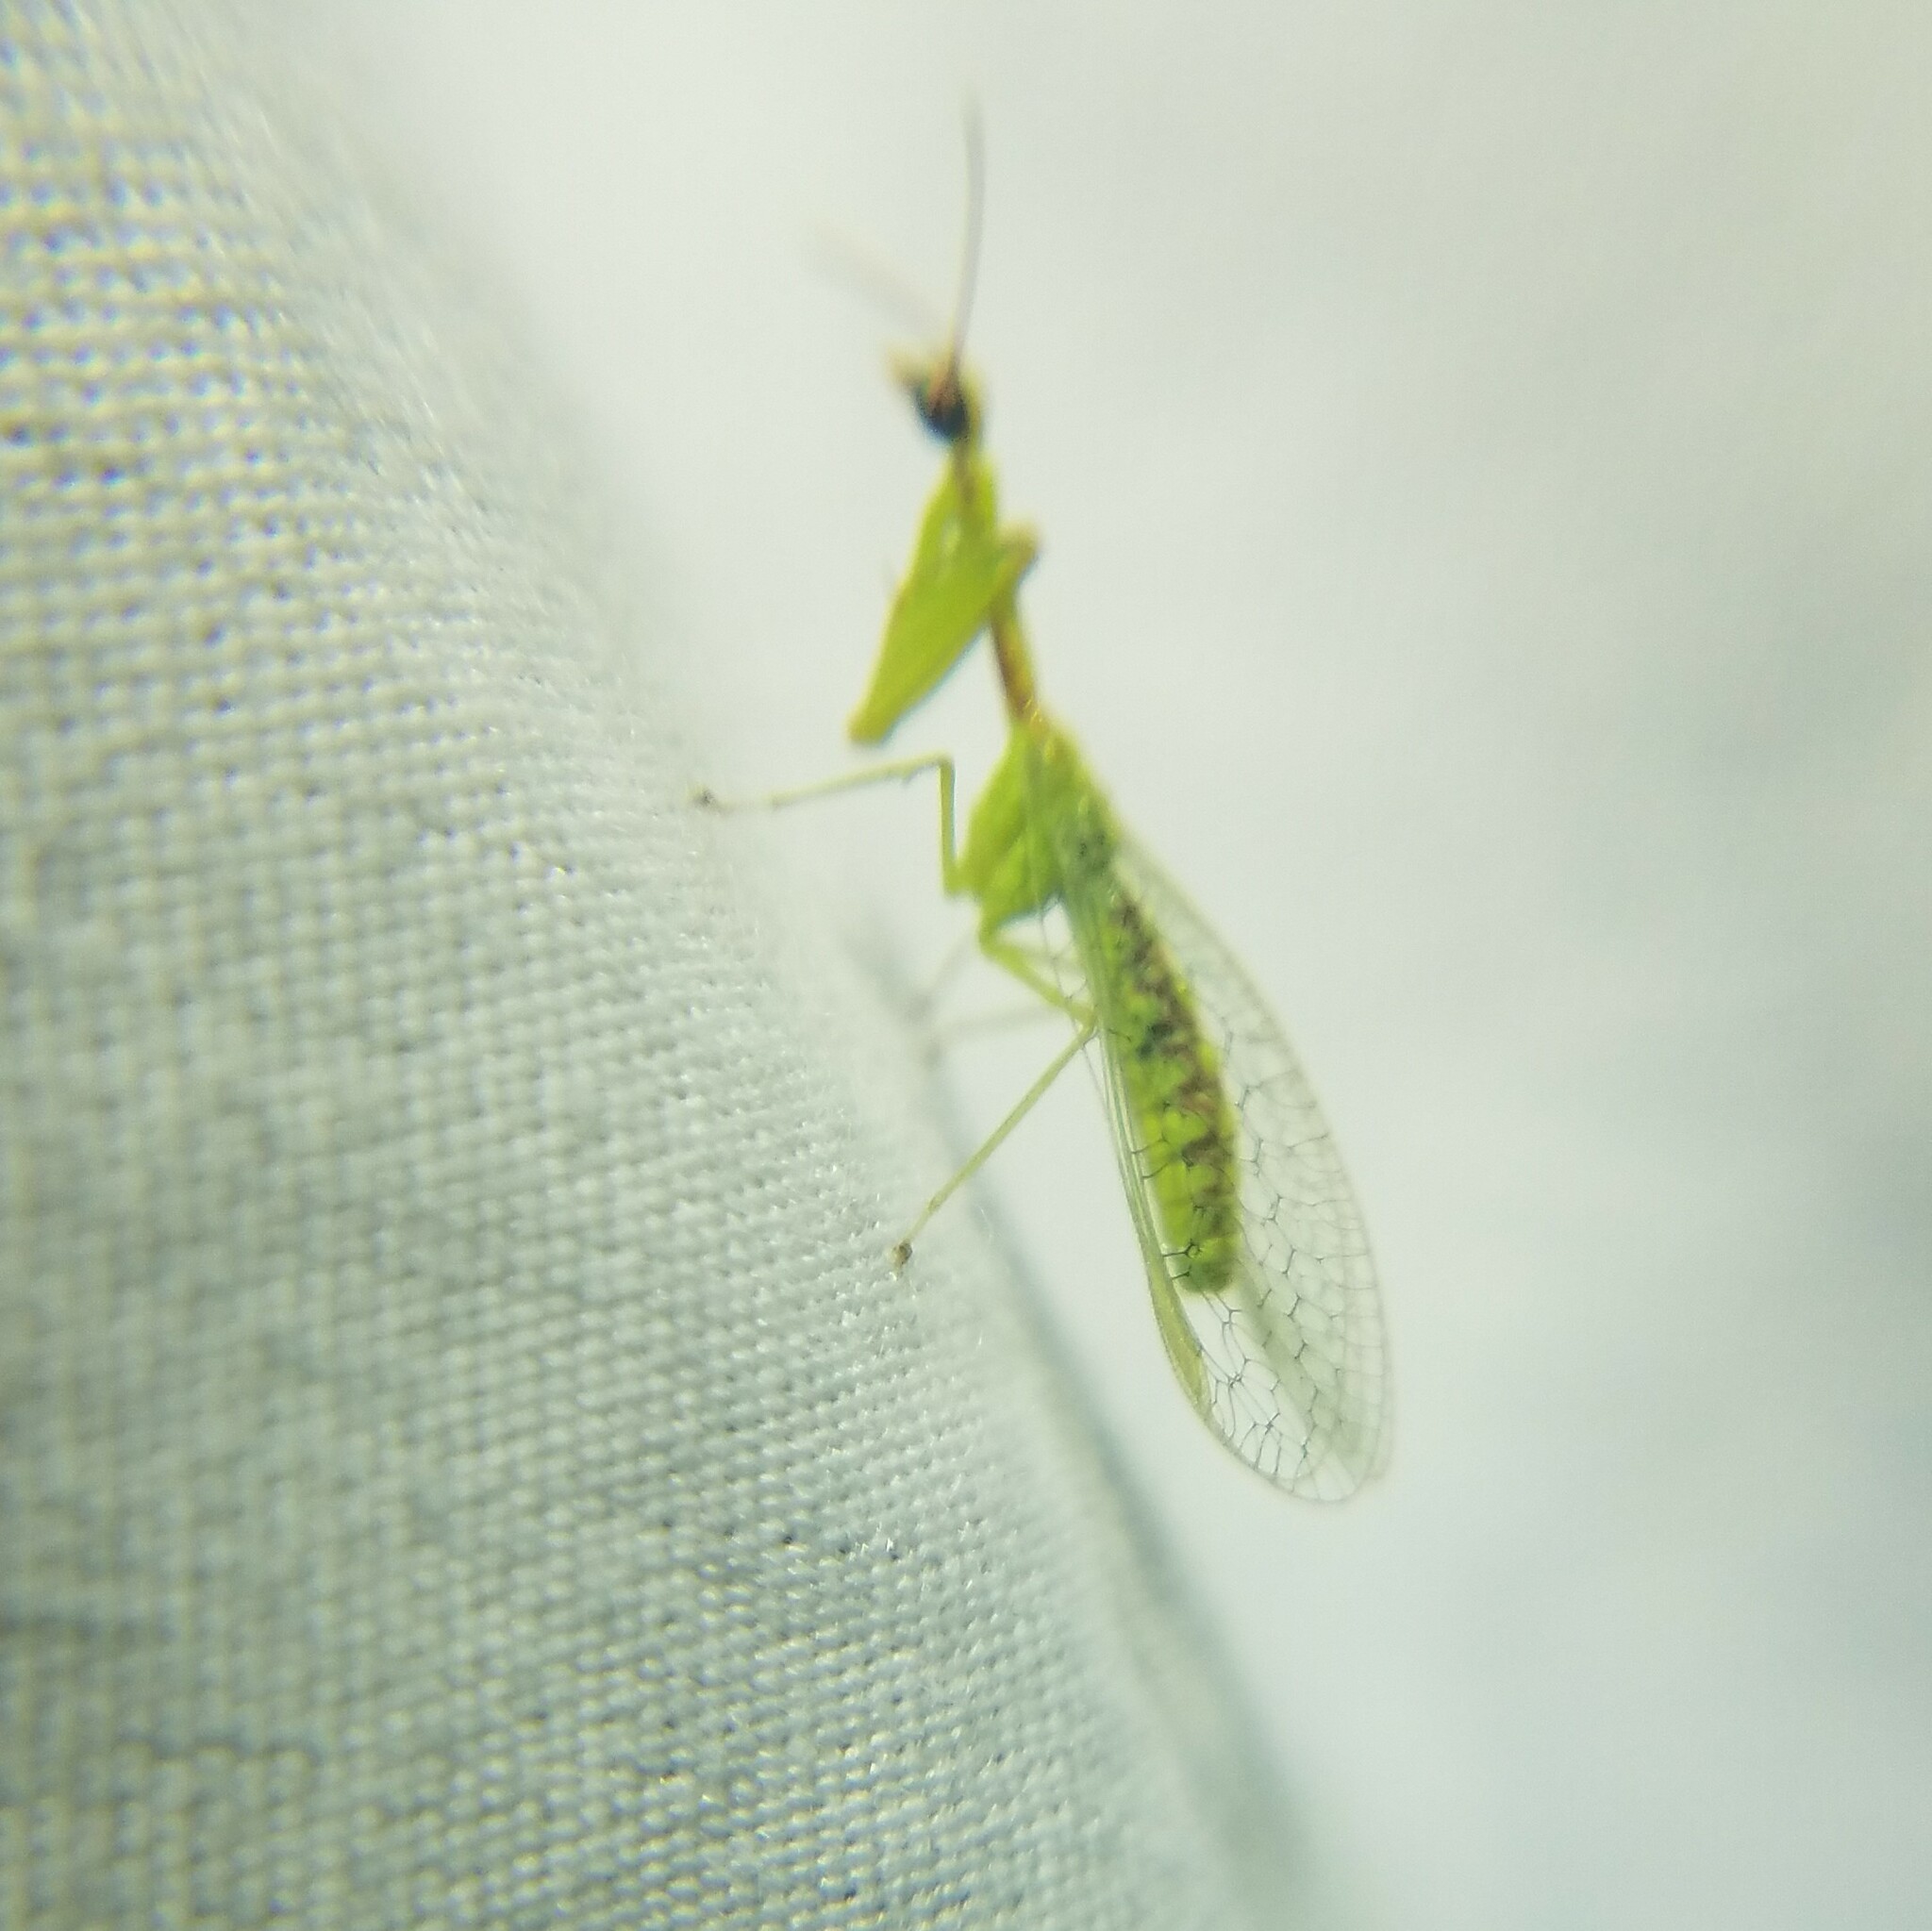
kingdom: Animalia
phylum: Arthropoda
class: Insecta
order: Neuroptera
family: Mantispidae
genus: Zeugomantispa
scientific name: Zeugomantispa minuta
